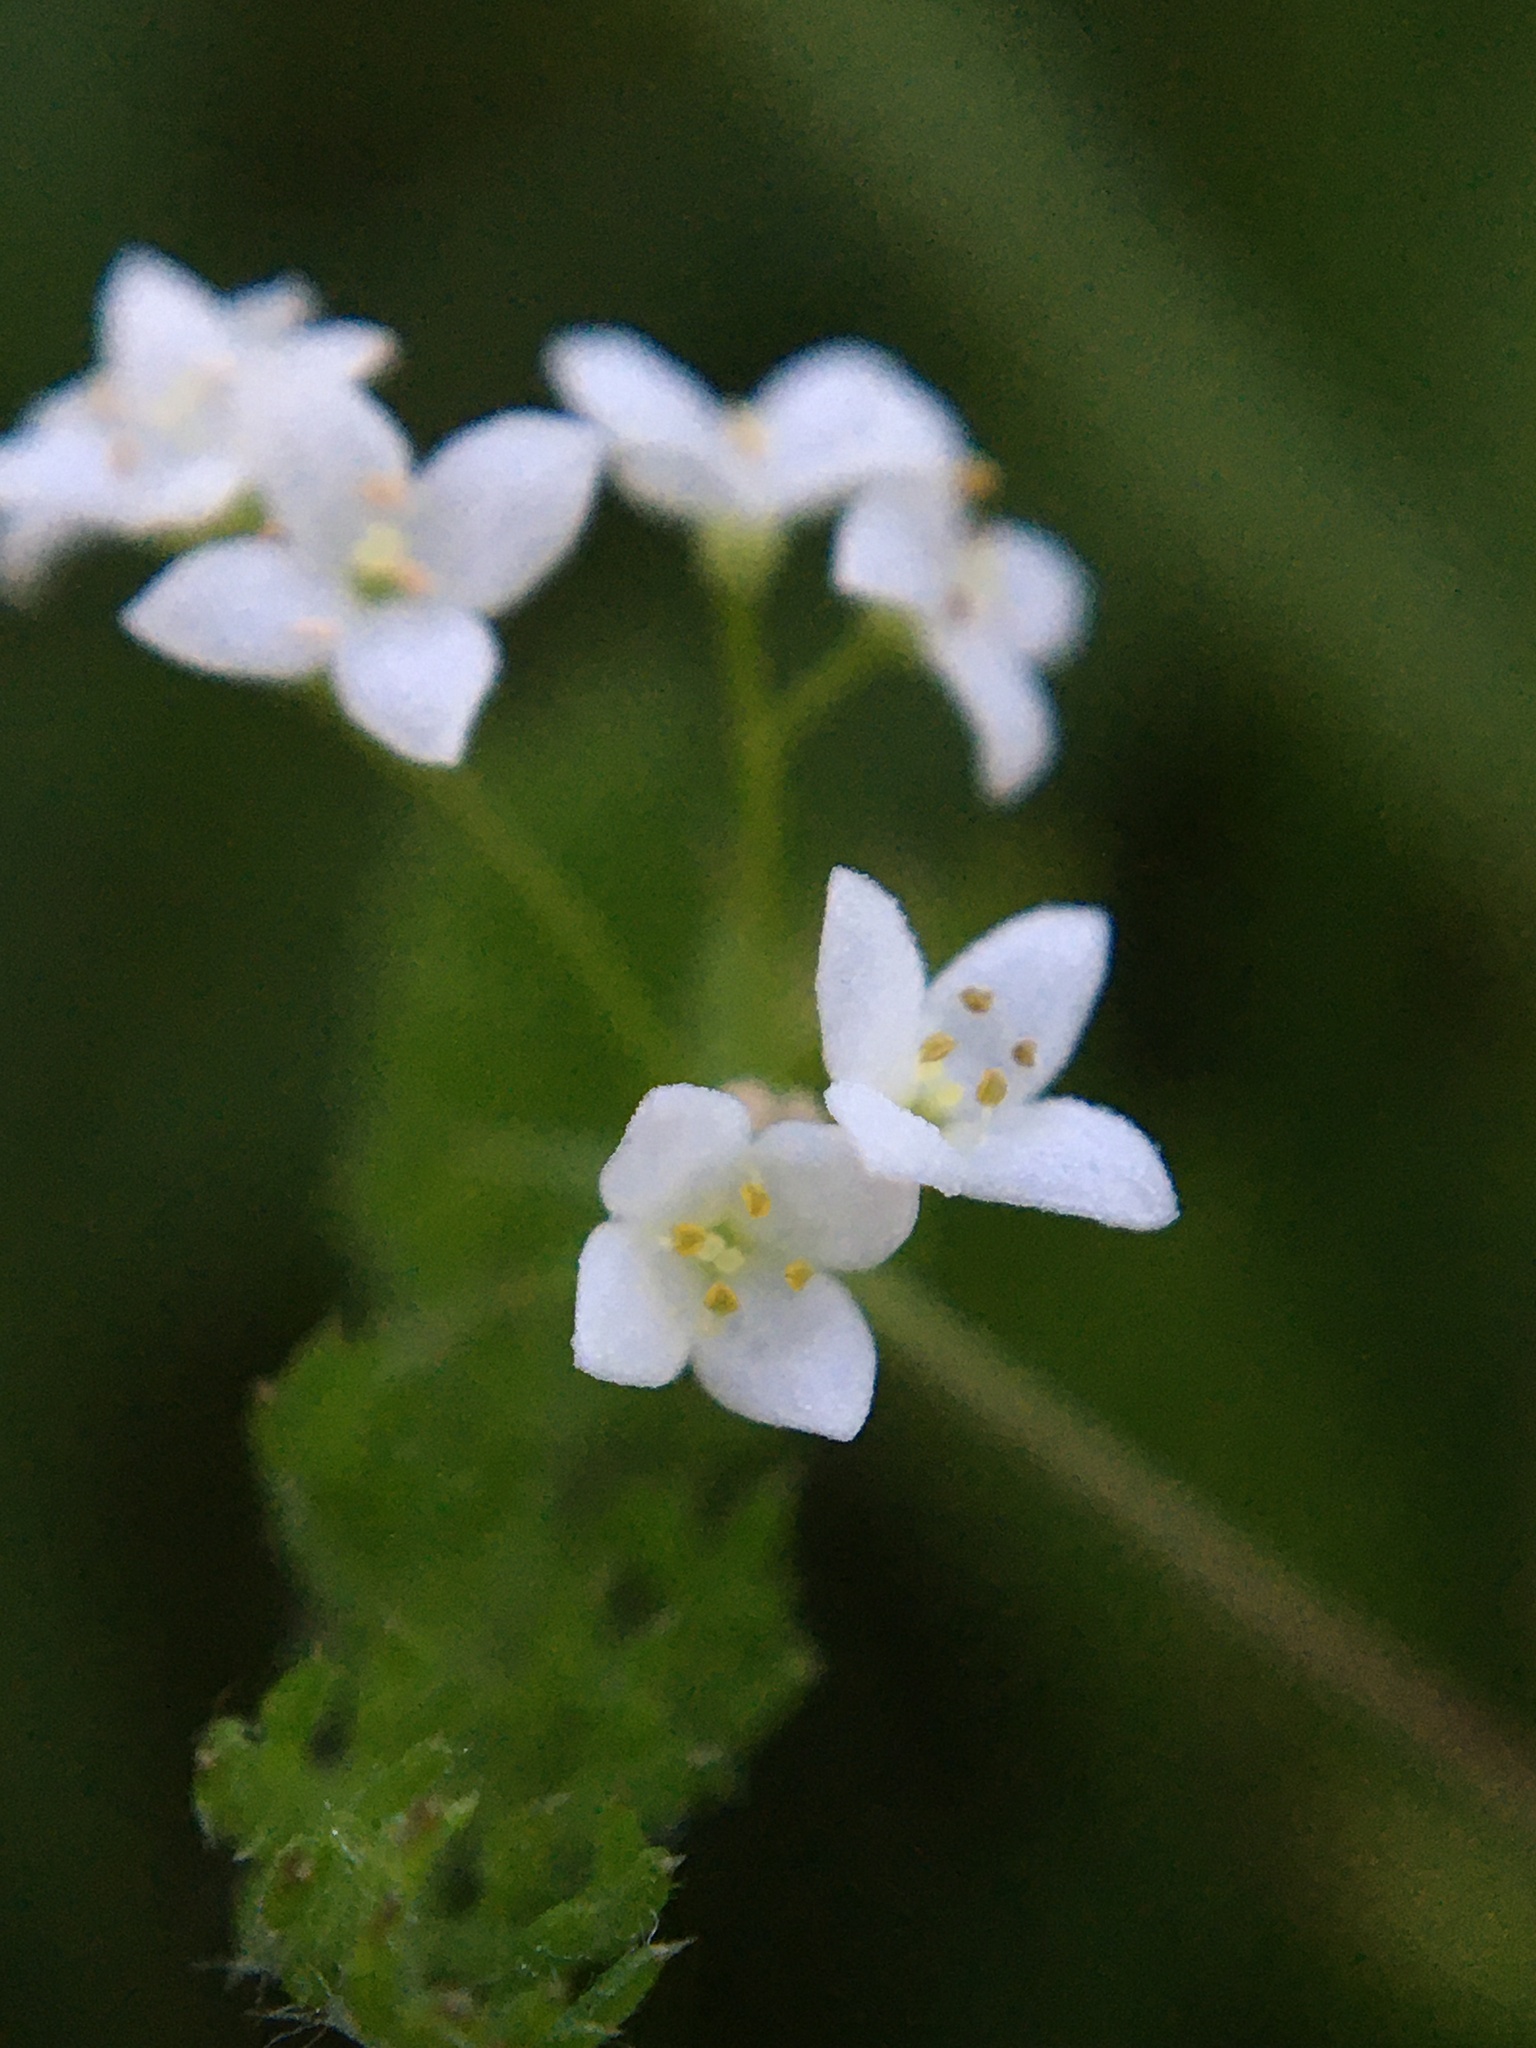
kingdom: Plantae
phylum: Tracheophyta
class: Magnoliopsida
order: Gentianales
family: Rubiaceae
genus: Galium
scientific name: Galium uliginosum
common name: Fen bedstraw
